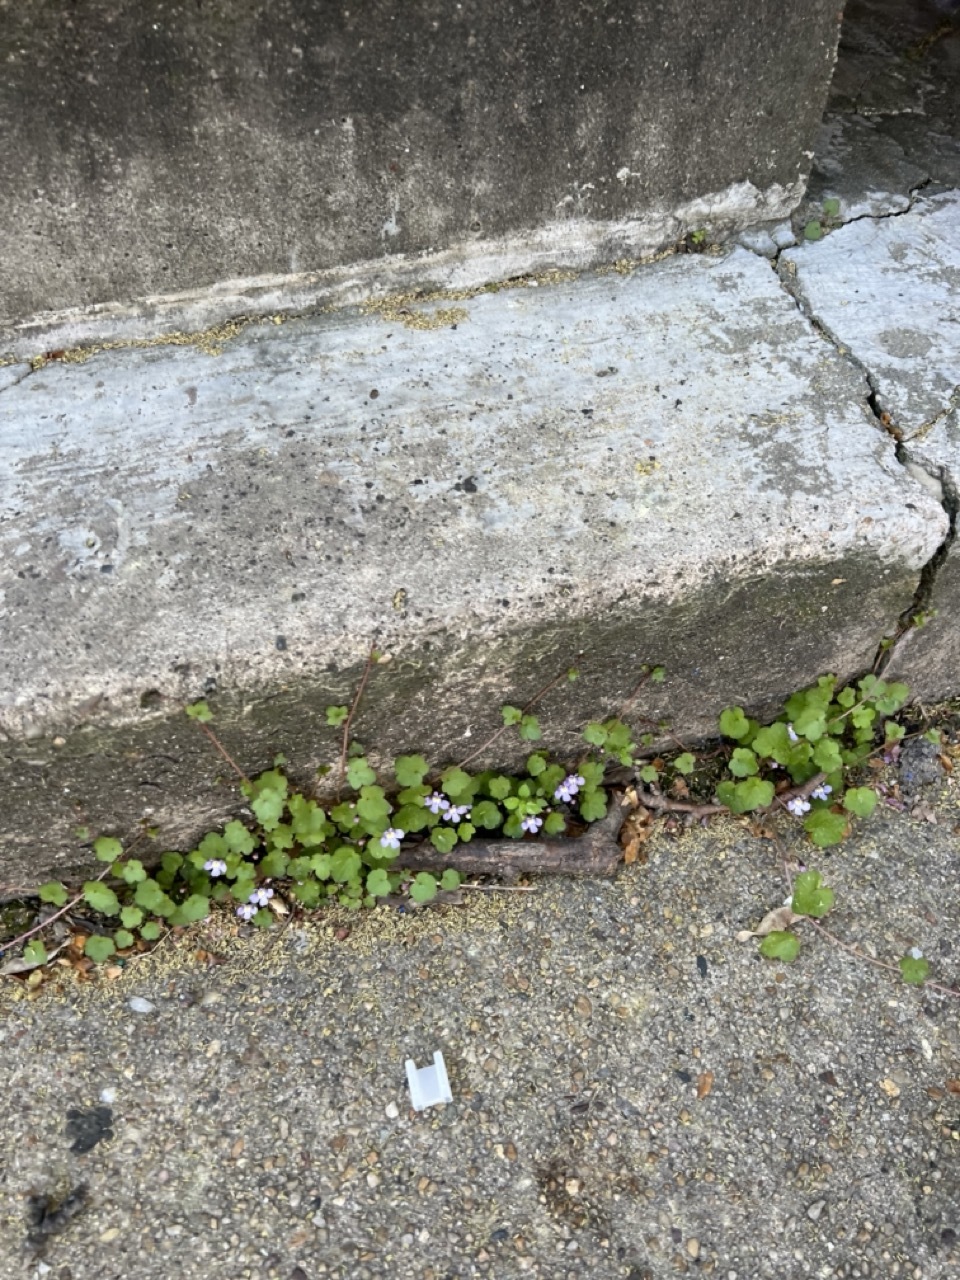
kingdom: Plantae
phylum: Tracheophyta
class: Magnoliopsida
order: Lamiales
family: Plantaginaceae
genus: Cymbalaria
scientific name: Cymbalaria muralis
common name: Ivy-leaved toadflax
